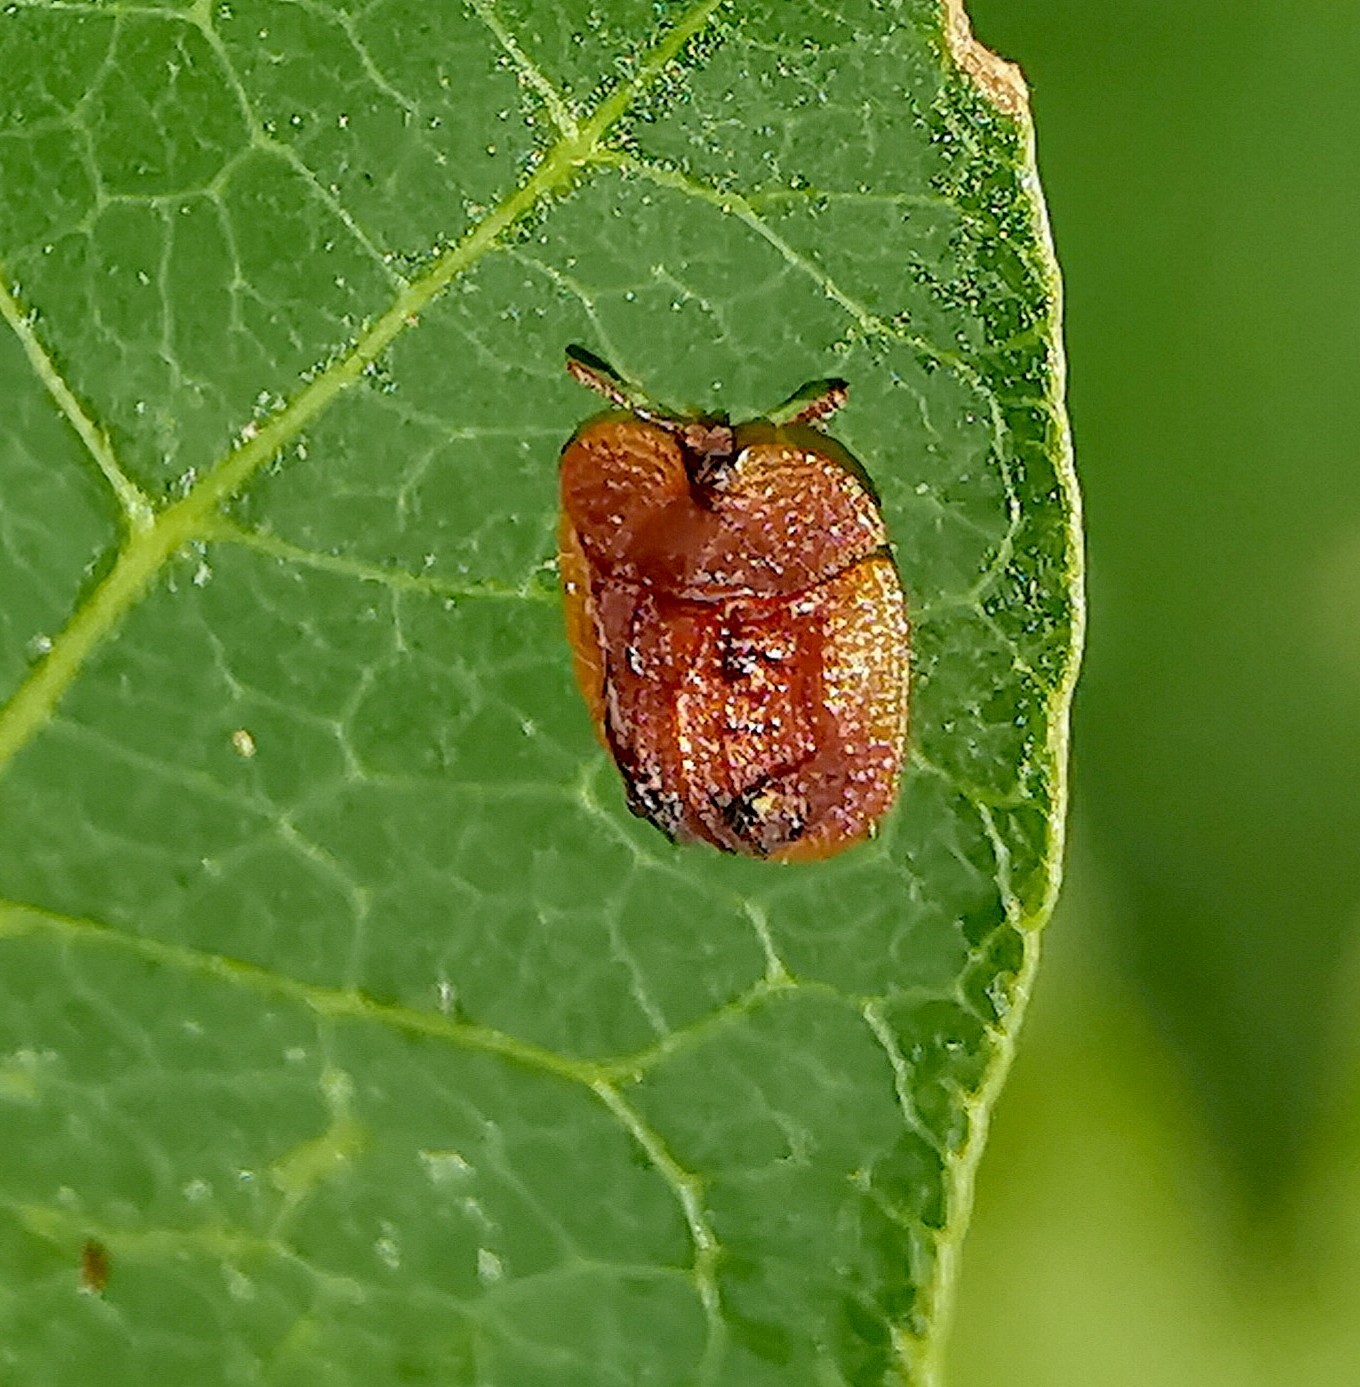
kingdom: Animalia
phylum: Arthropoda
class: Insecta
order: Coleoptera
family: Chrysomelidae
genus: Notosacantha
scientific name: Notosacantha rufa
